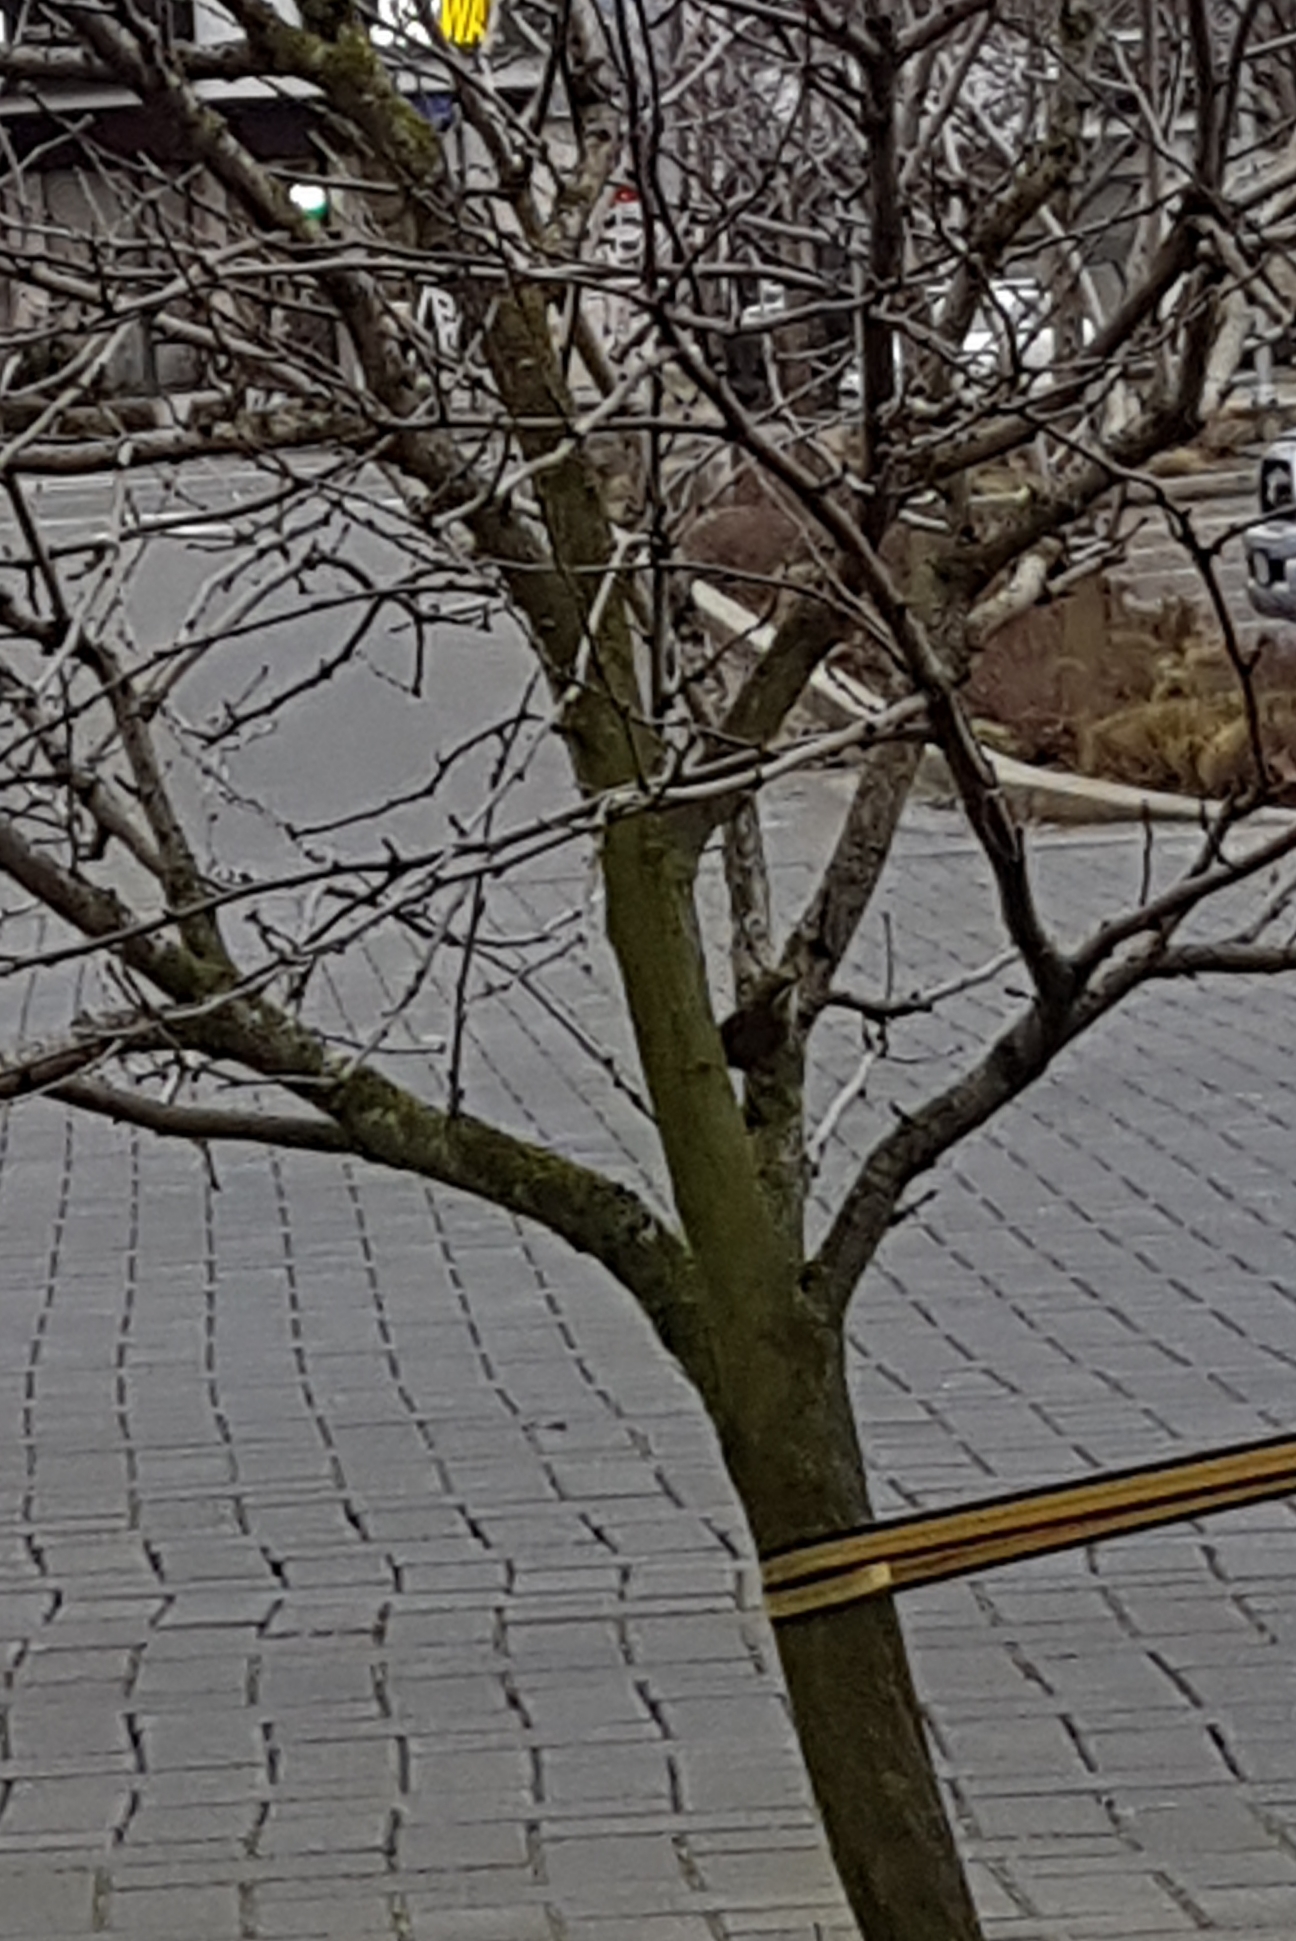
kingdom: Animalia
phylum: Chordata
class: Aves
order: Passeriformes
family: Troglodytidae
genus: Thryomanes
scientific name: Thryomanes bewickii
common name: Bewick's wren
